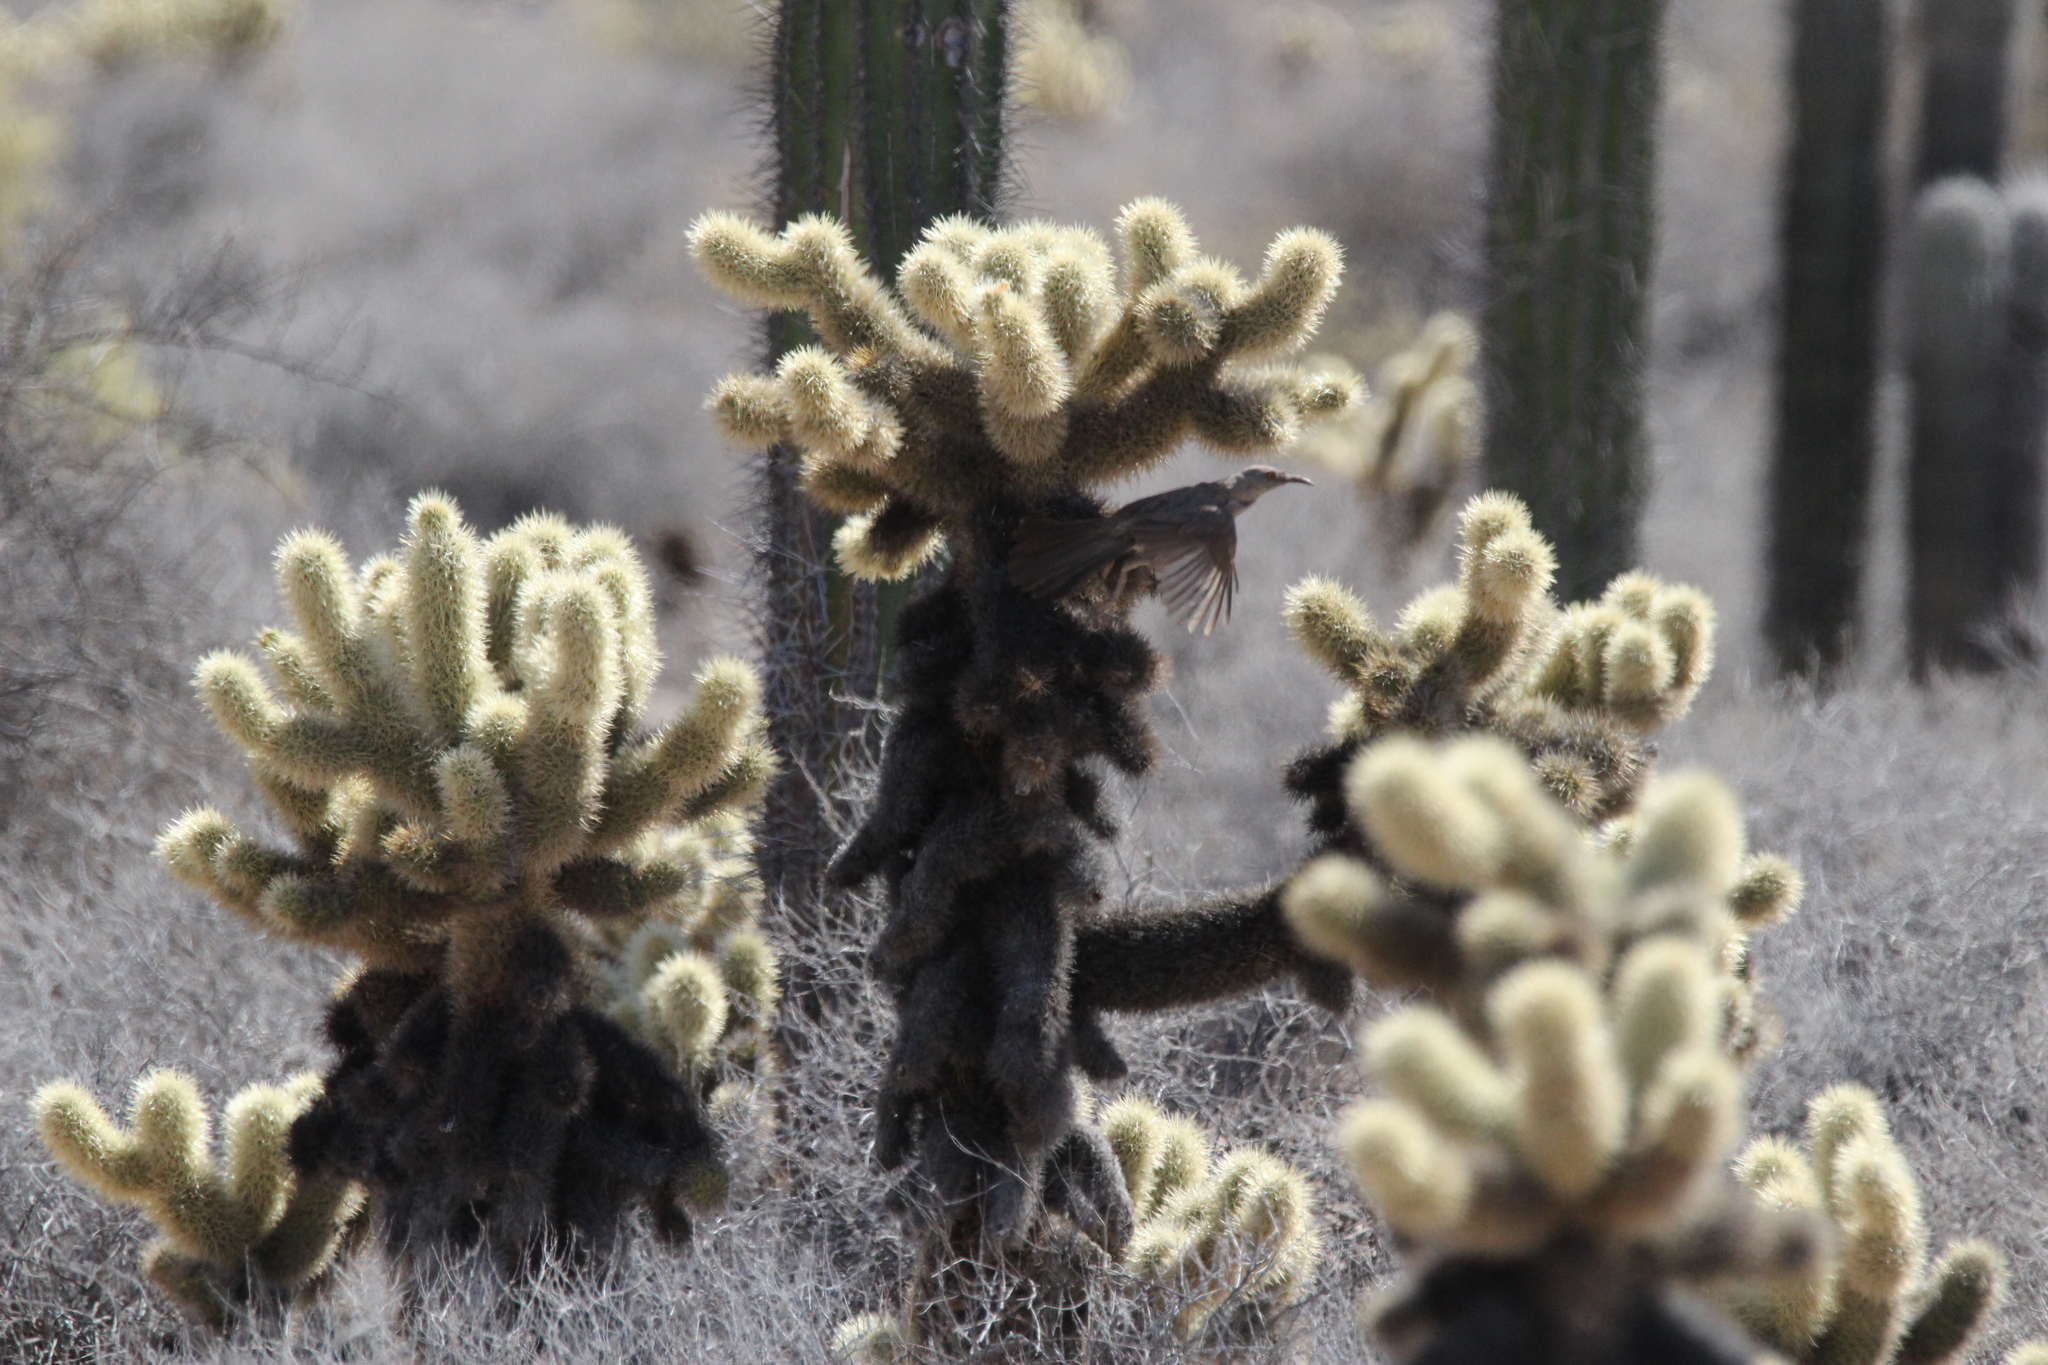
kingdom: Plantae
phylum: Tracheophyta
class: Magnoliopsida
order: Caryophyllales
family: Cactaceae
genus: Cylindropuntia
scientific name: Cylindropuntia fosbergii
